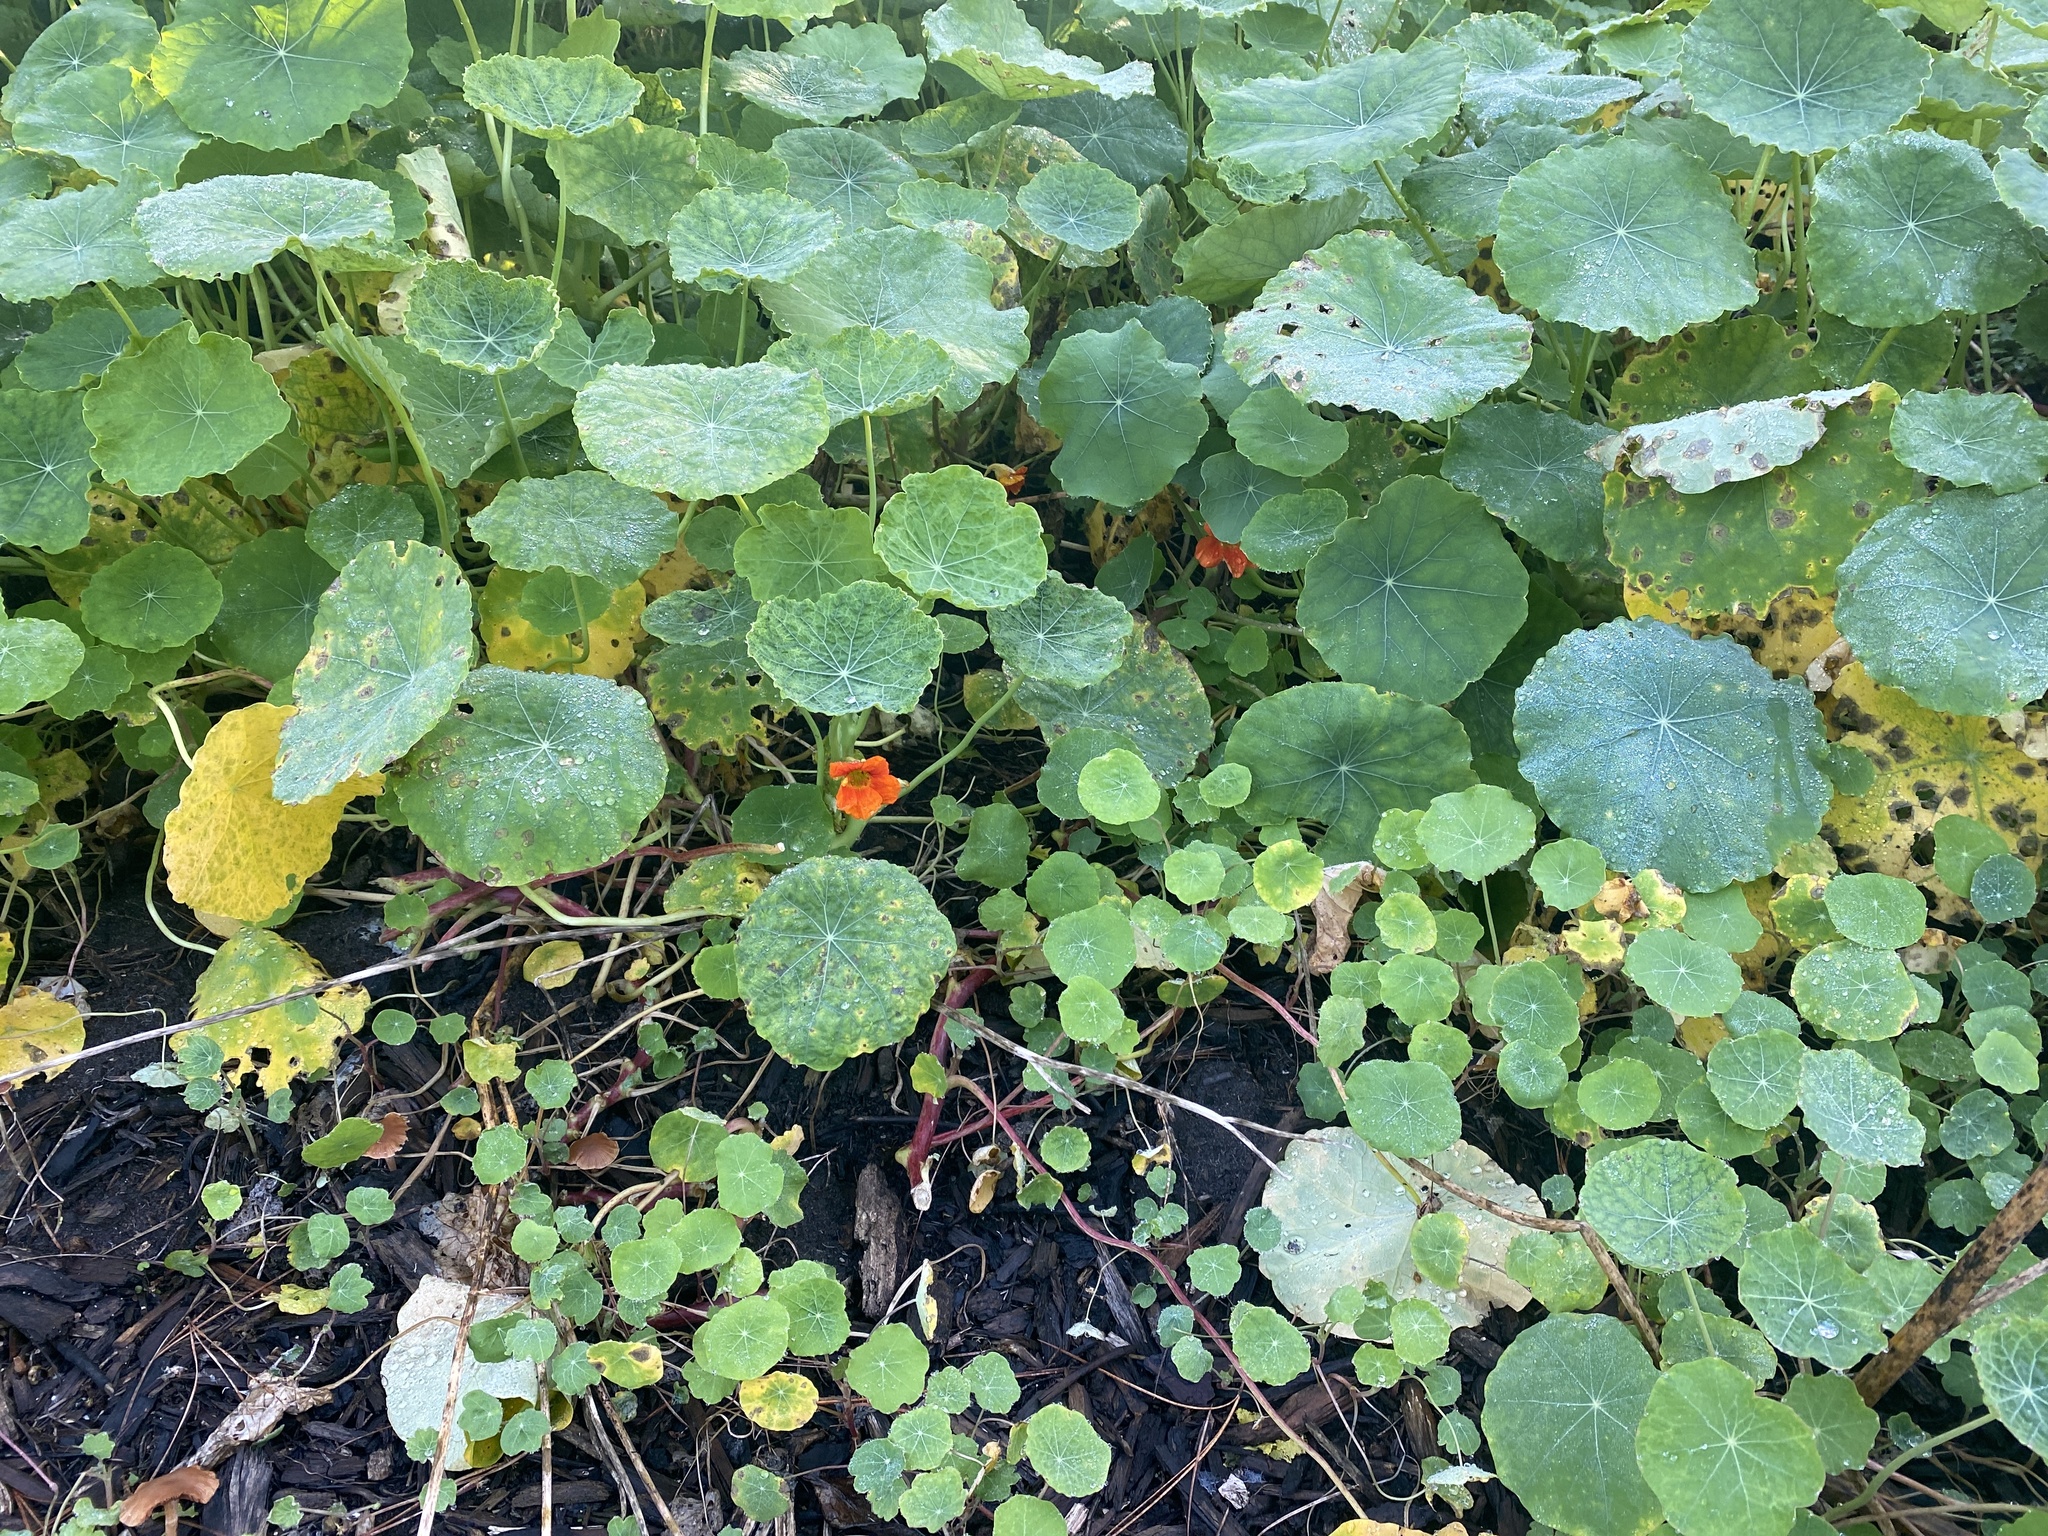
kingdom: Plantae
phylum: Tracheophyta
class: Magnoliopsida
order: Brassicales
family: Tropaeolaceae
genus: Tropaeolum
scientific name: Tropaeolum majus
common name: Nasturtium
